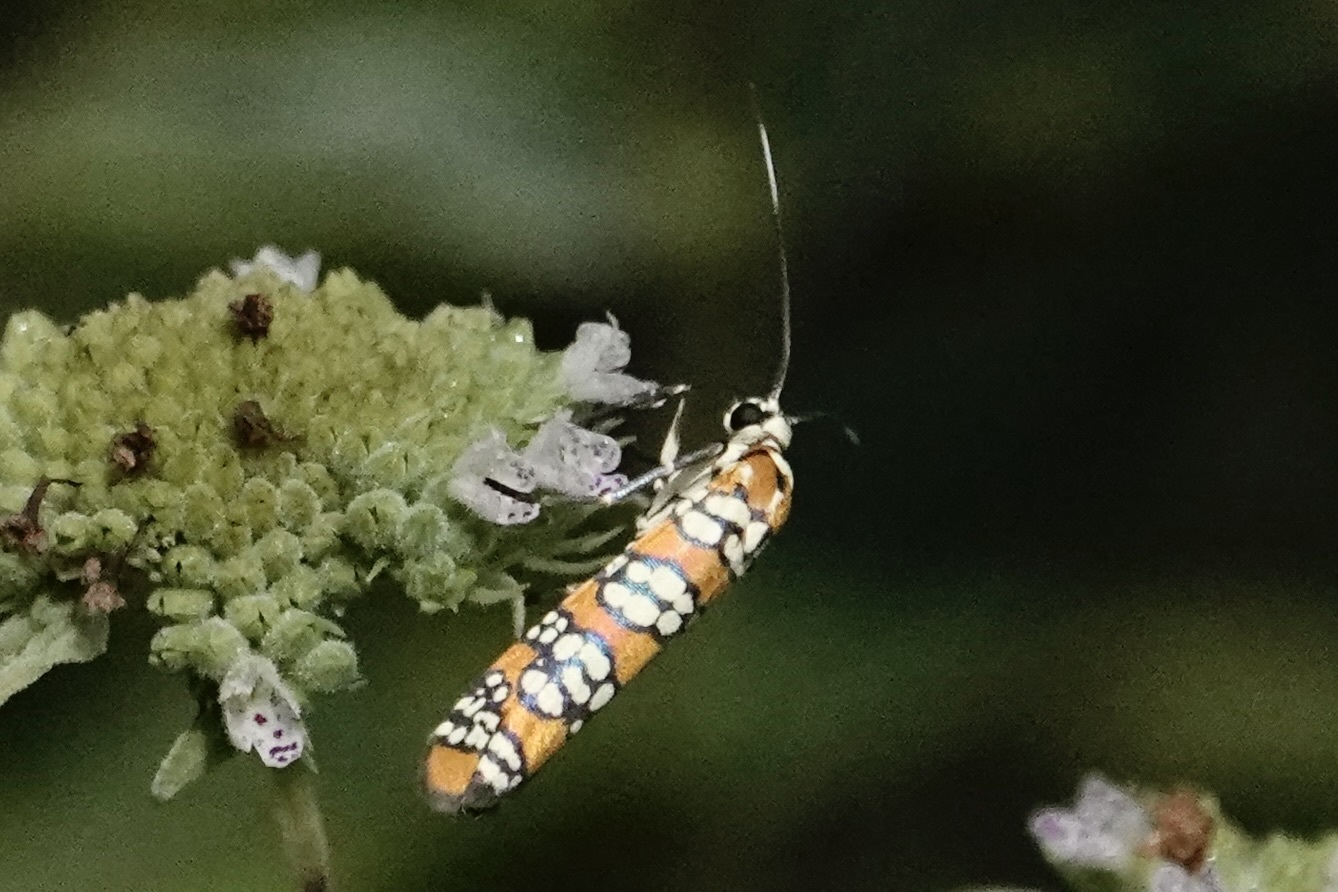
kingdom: Animalia
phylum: Arthropoda
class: Insecta
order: Lepidoptera
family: Attevidae
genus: Atteva
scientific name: Atteva punctella
